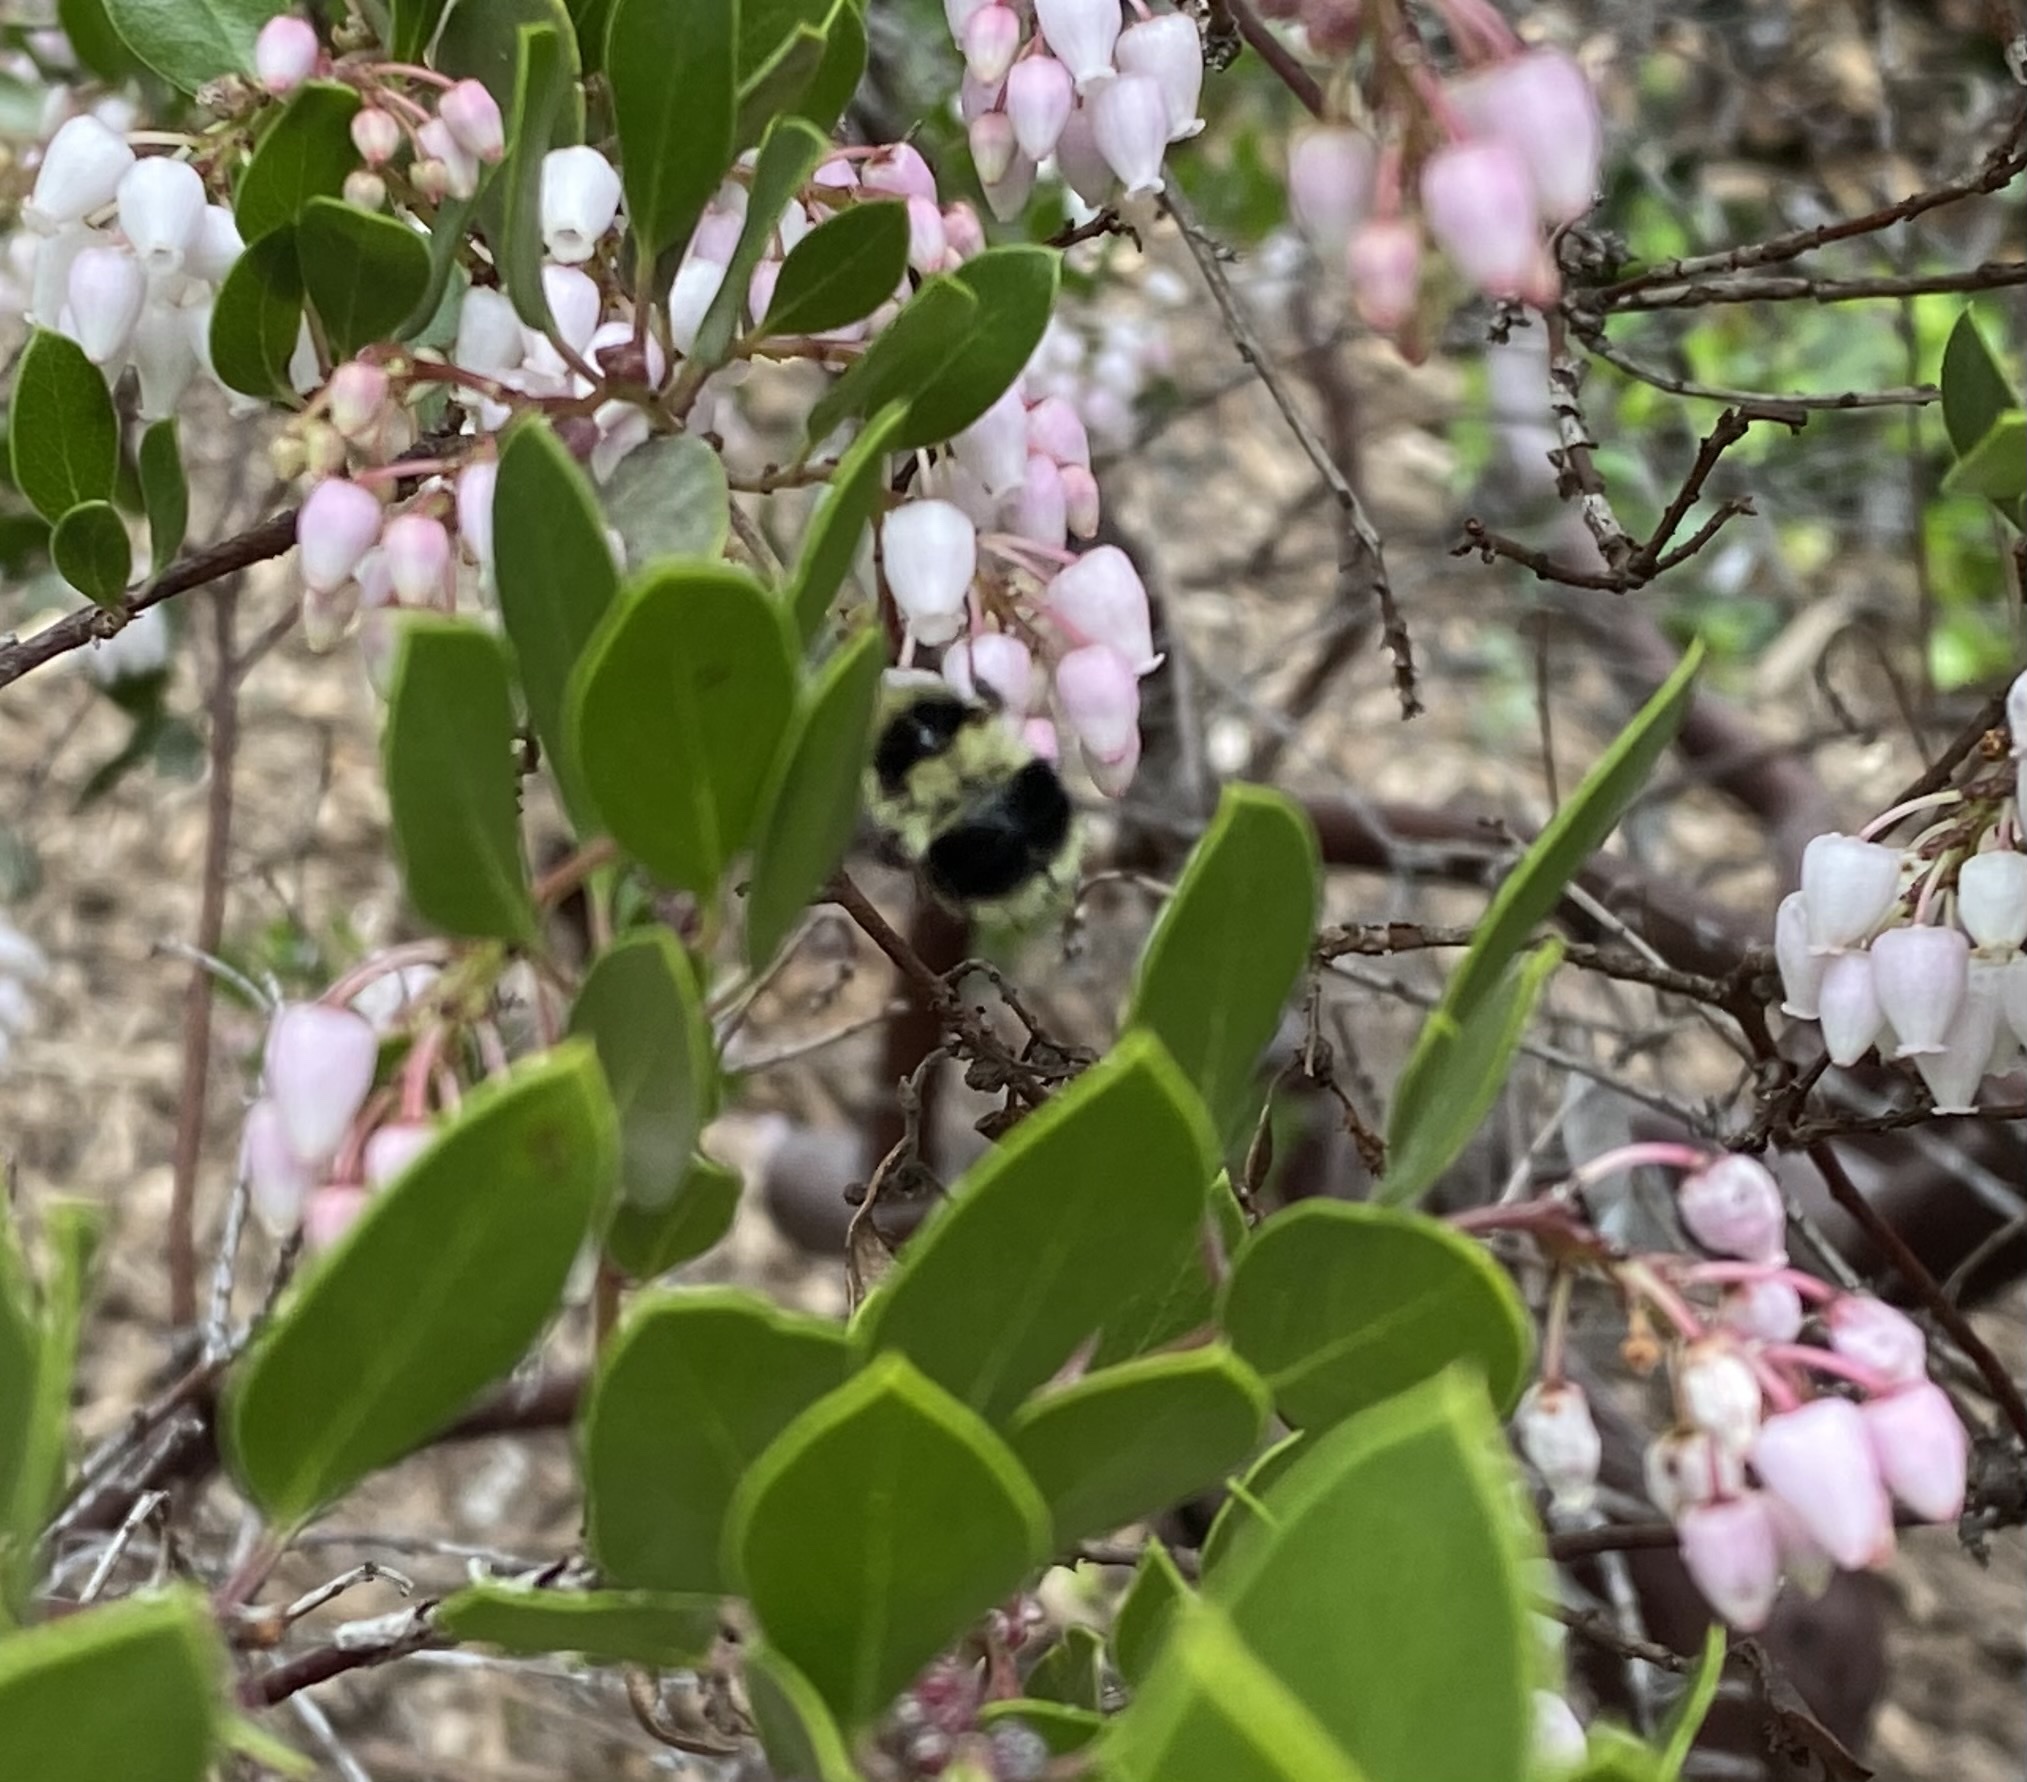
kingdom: Animalia
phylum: Arthropoda
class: Insecta
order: Hymenoptera
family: Apidae
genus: Bombus
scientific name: Bombus melanopygus
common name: Black tail bumble bee
